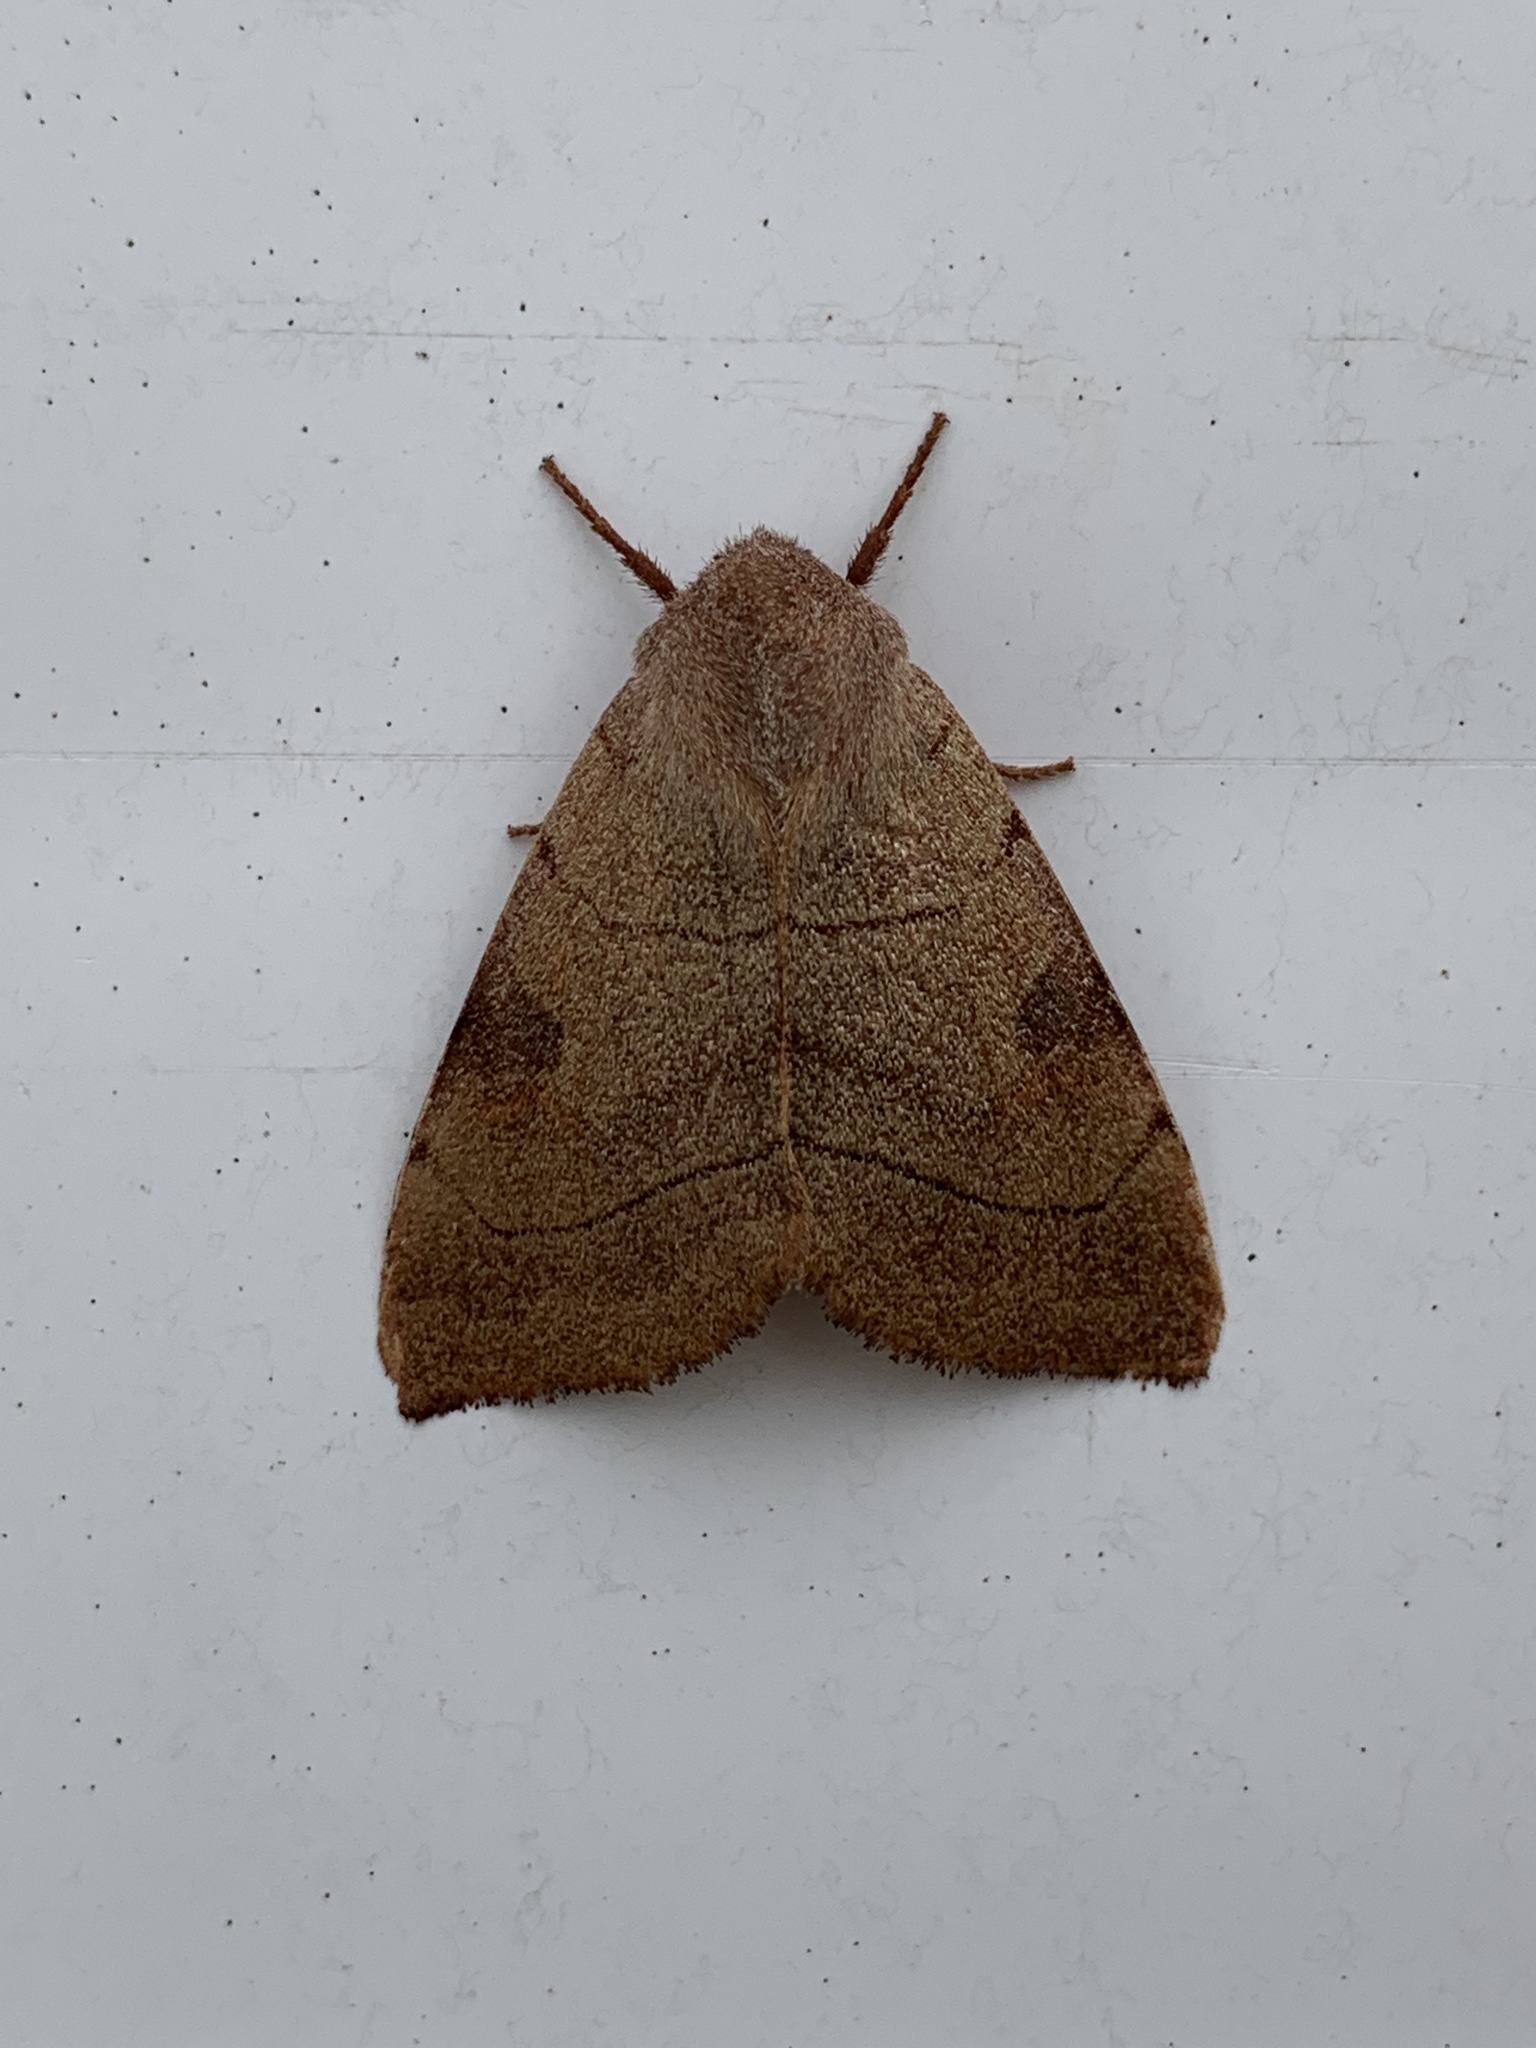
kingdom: Animalia
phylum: Arthropoda
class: Insecta
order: Lepidoptera
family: Noctuidae
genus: Choephora
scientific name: Choephora fungorum
